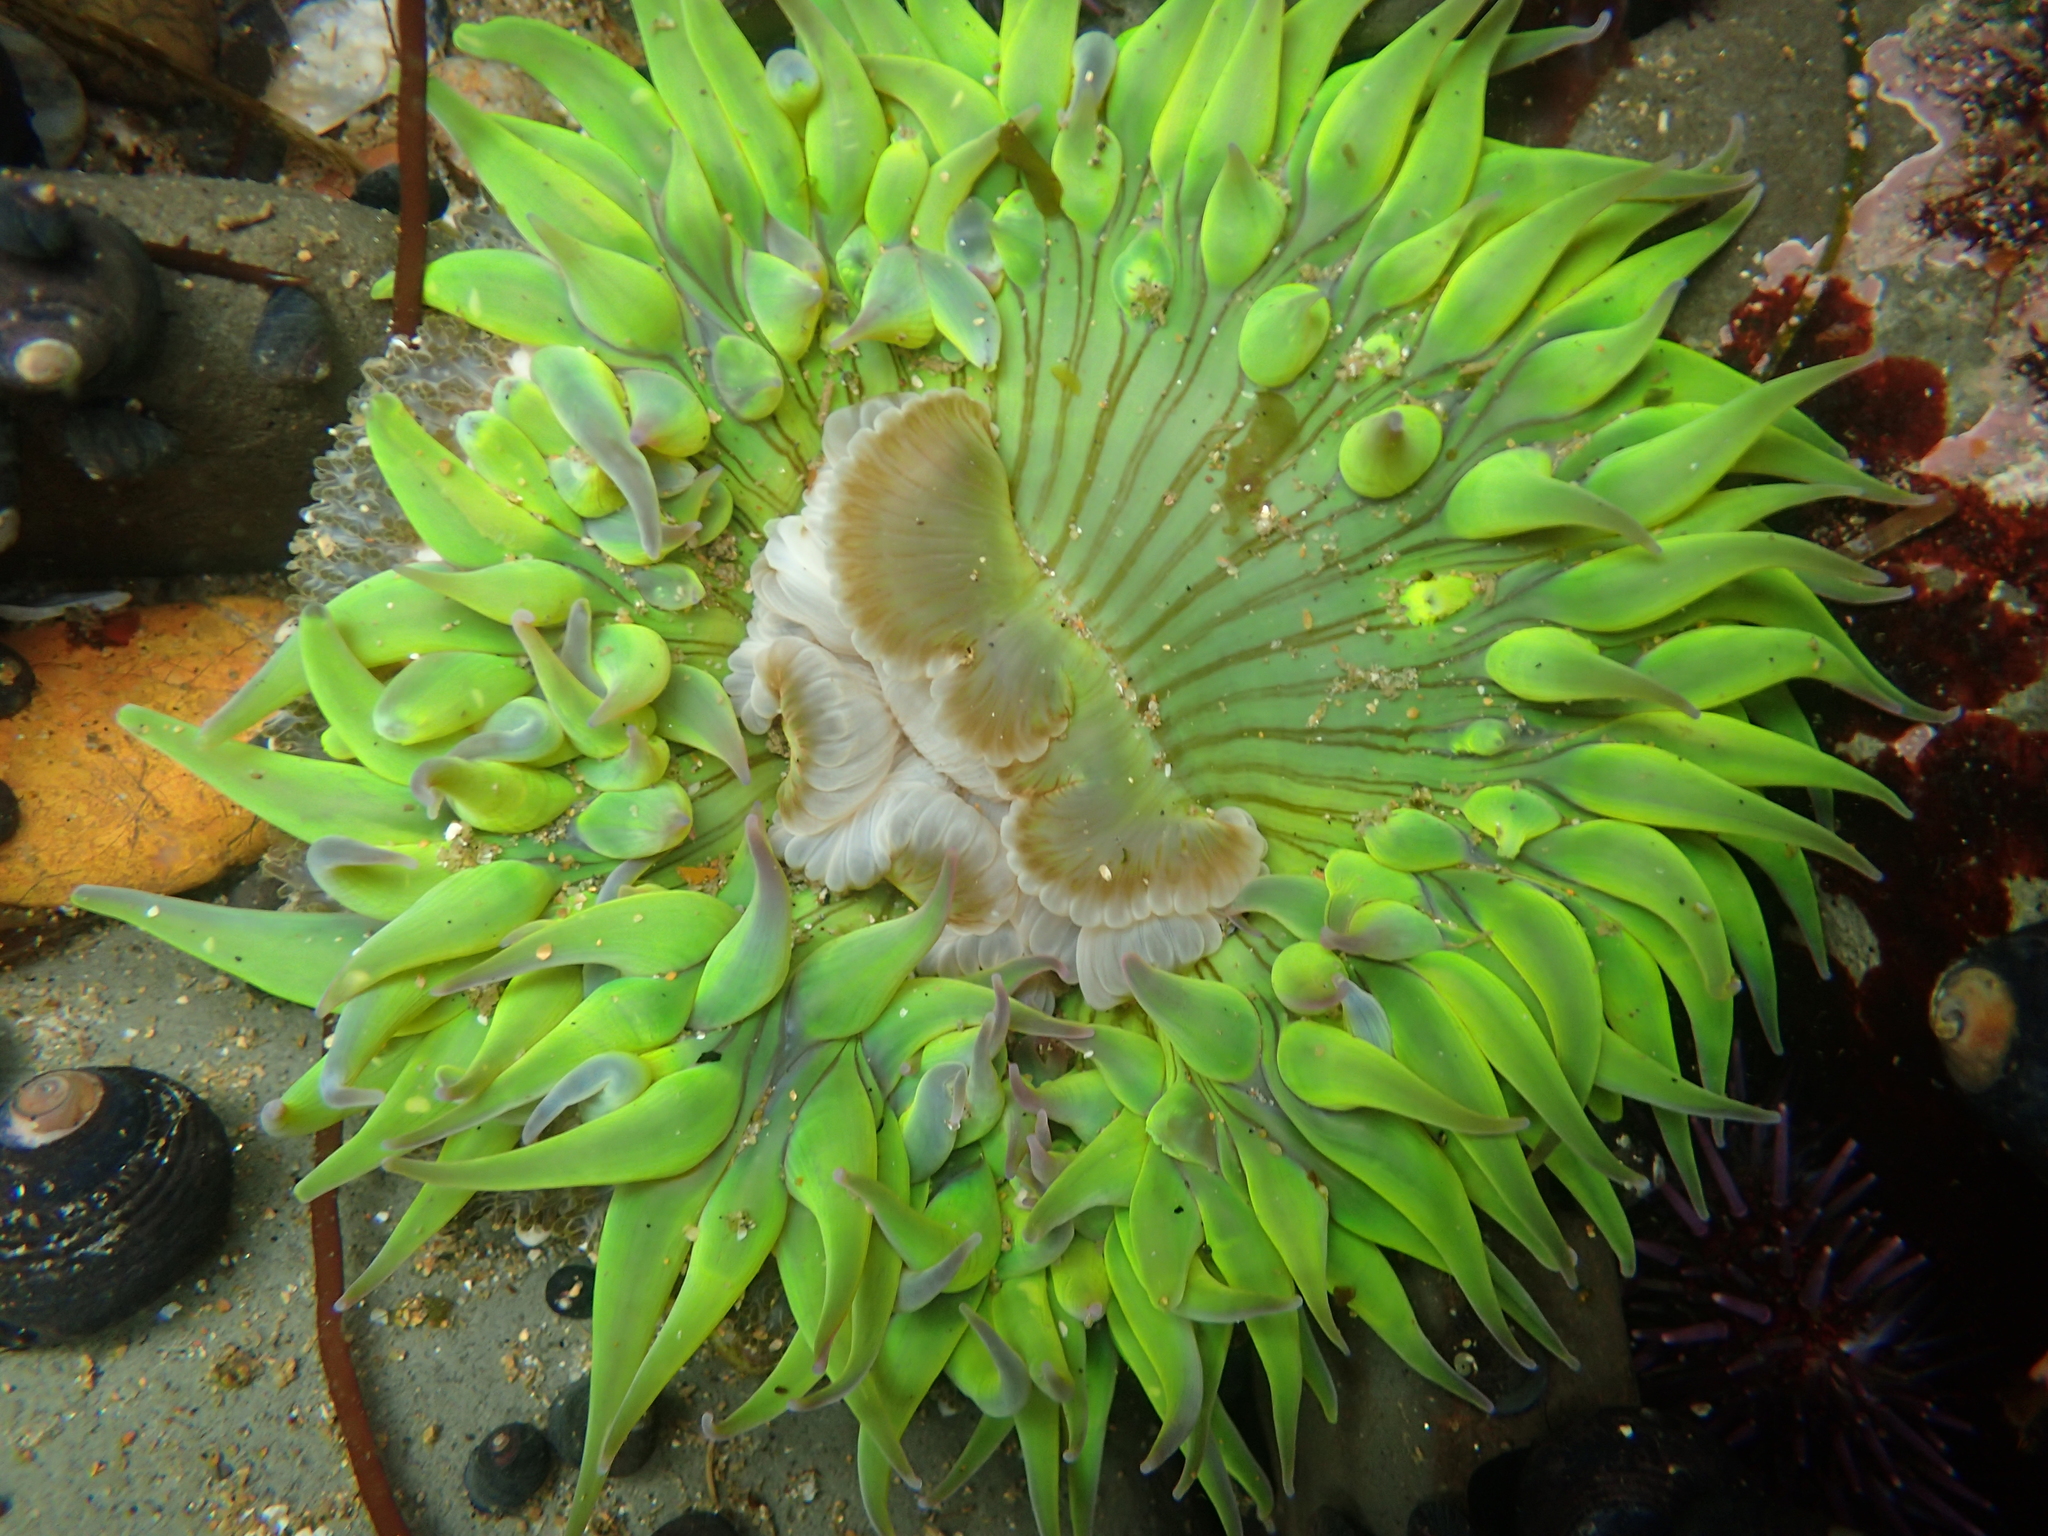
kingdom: Animalia
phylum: Cnidaria
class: Anthozoa
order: Actiniaria
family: Actiniidae
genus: Anthopleura
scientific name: Anthopleura sola
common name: Sun anemone
